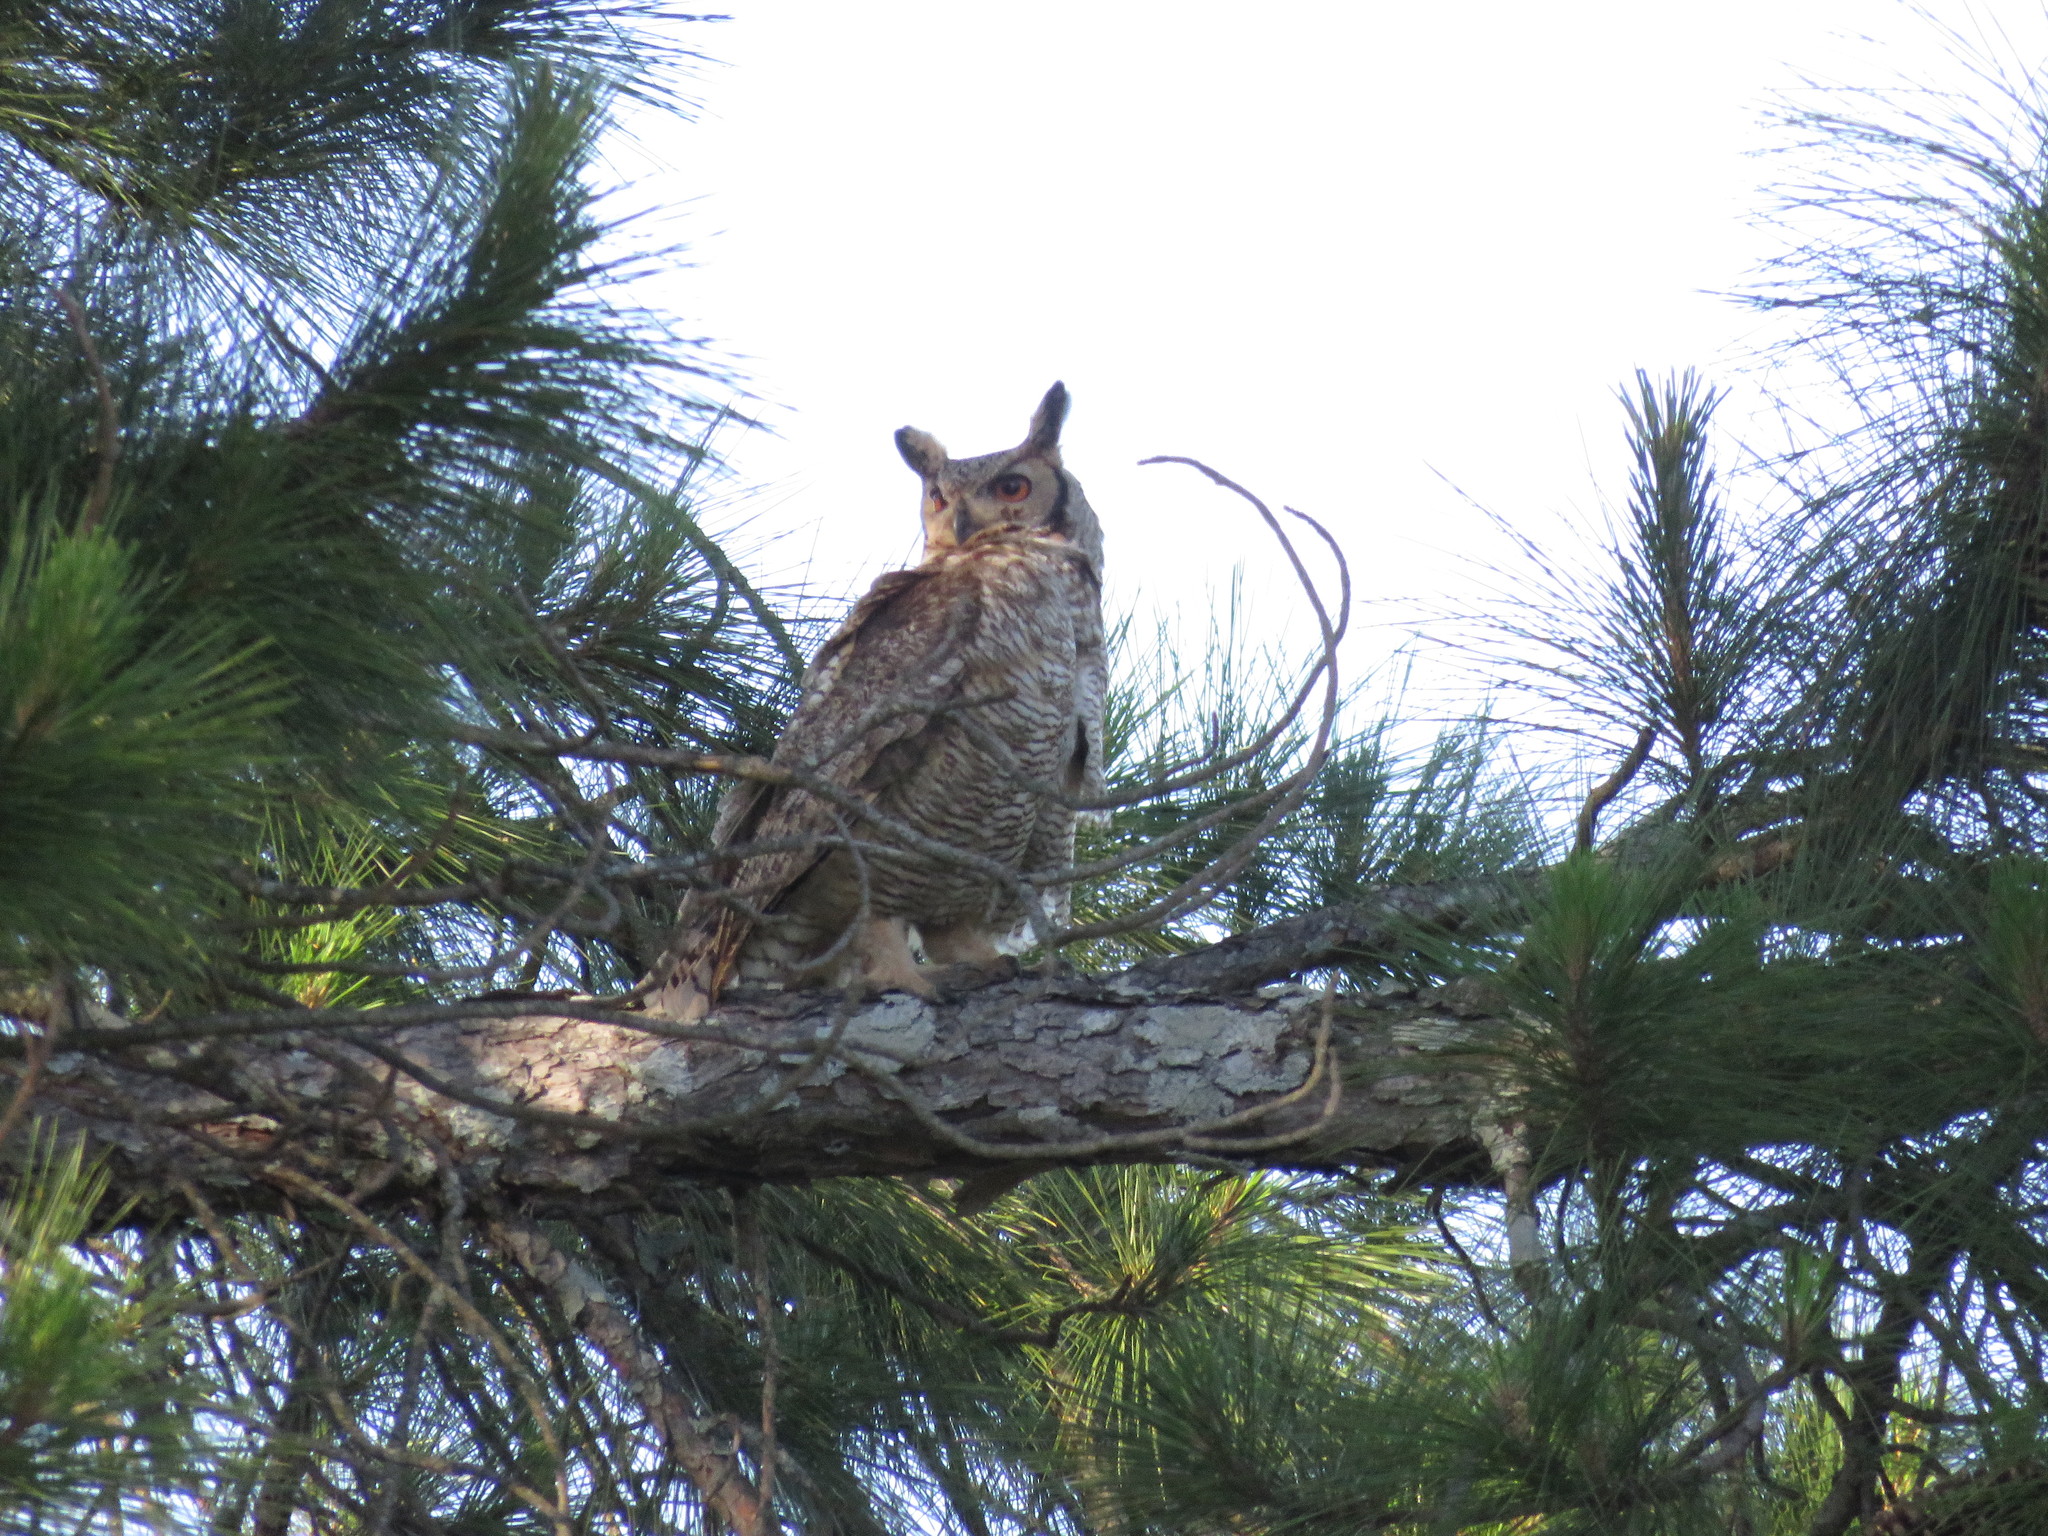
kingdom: Animalia
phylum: Chordata
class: Aves
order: Strigiformes
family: Strigidae
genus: Bubo
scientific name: Bubo virginianus
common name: Great horned owl
